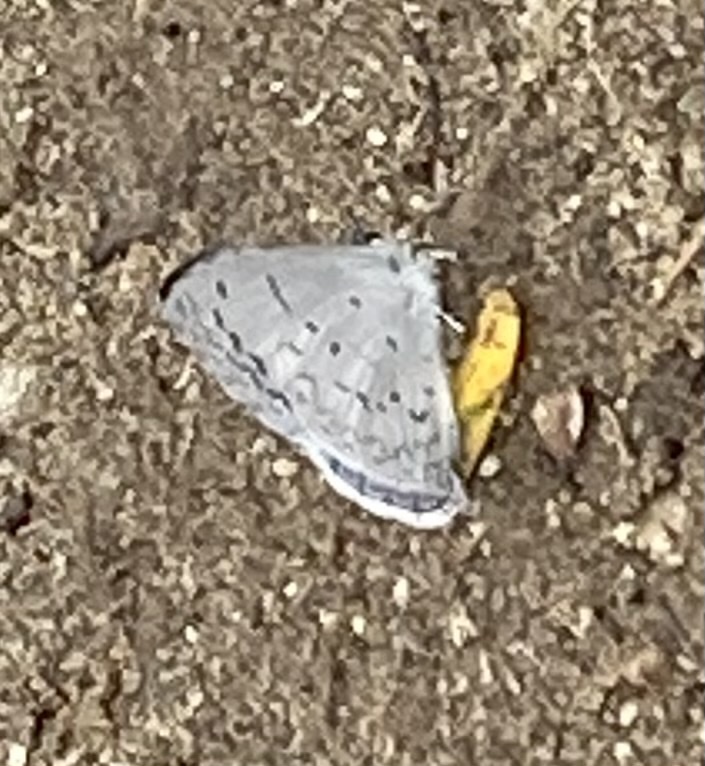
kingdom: Animalia
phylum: Arthropoda
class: Insecta
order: Lepidoptera
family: Lycaenidae
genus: Celastrina
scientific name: Celastrina ladon
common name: Spring azure
